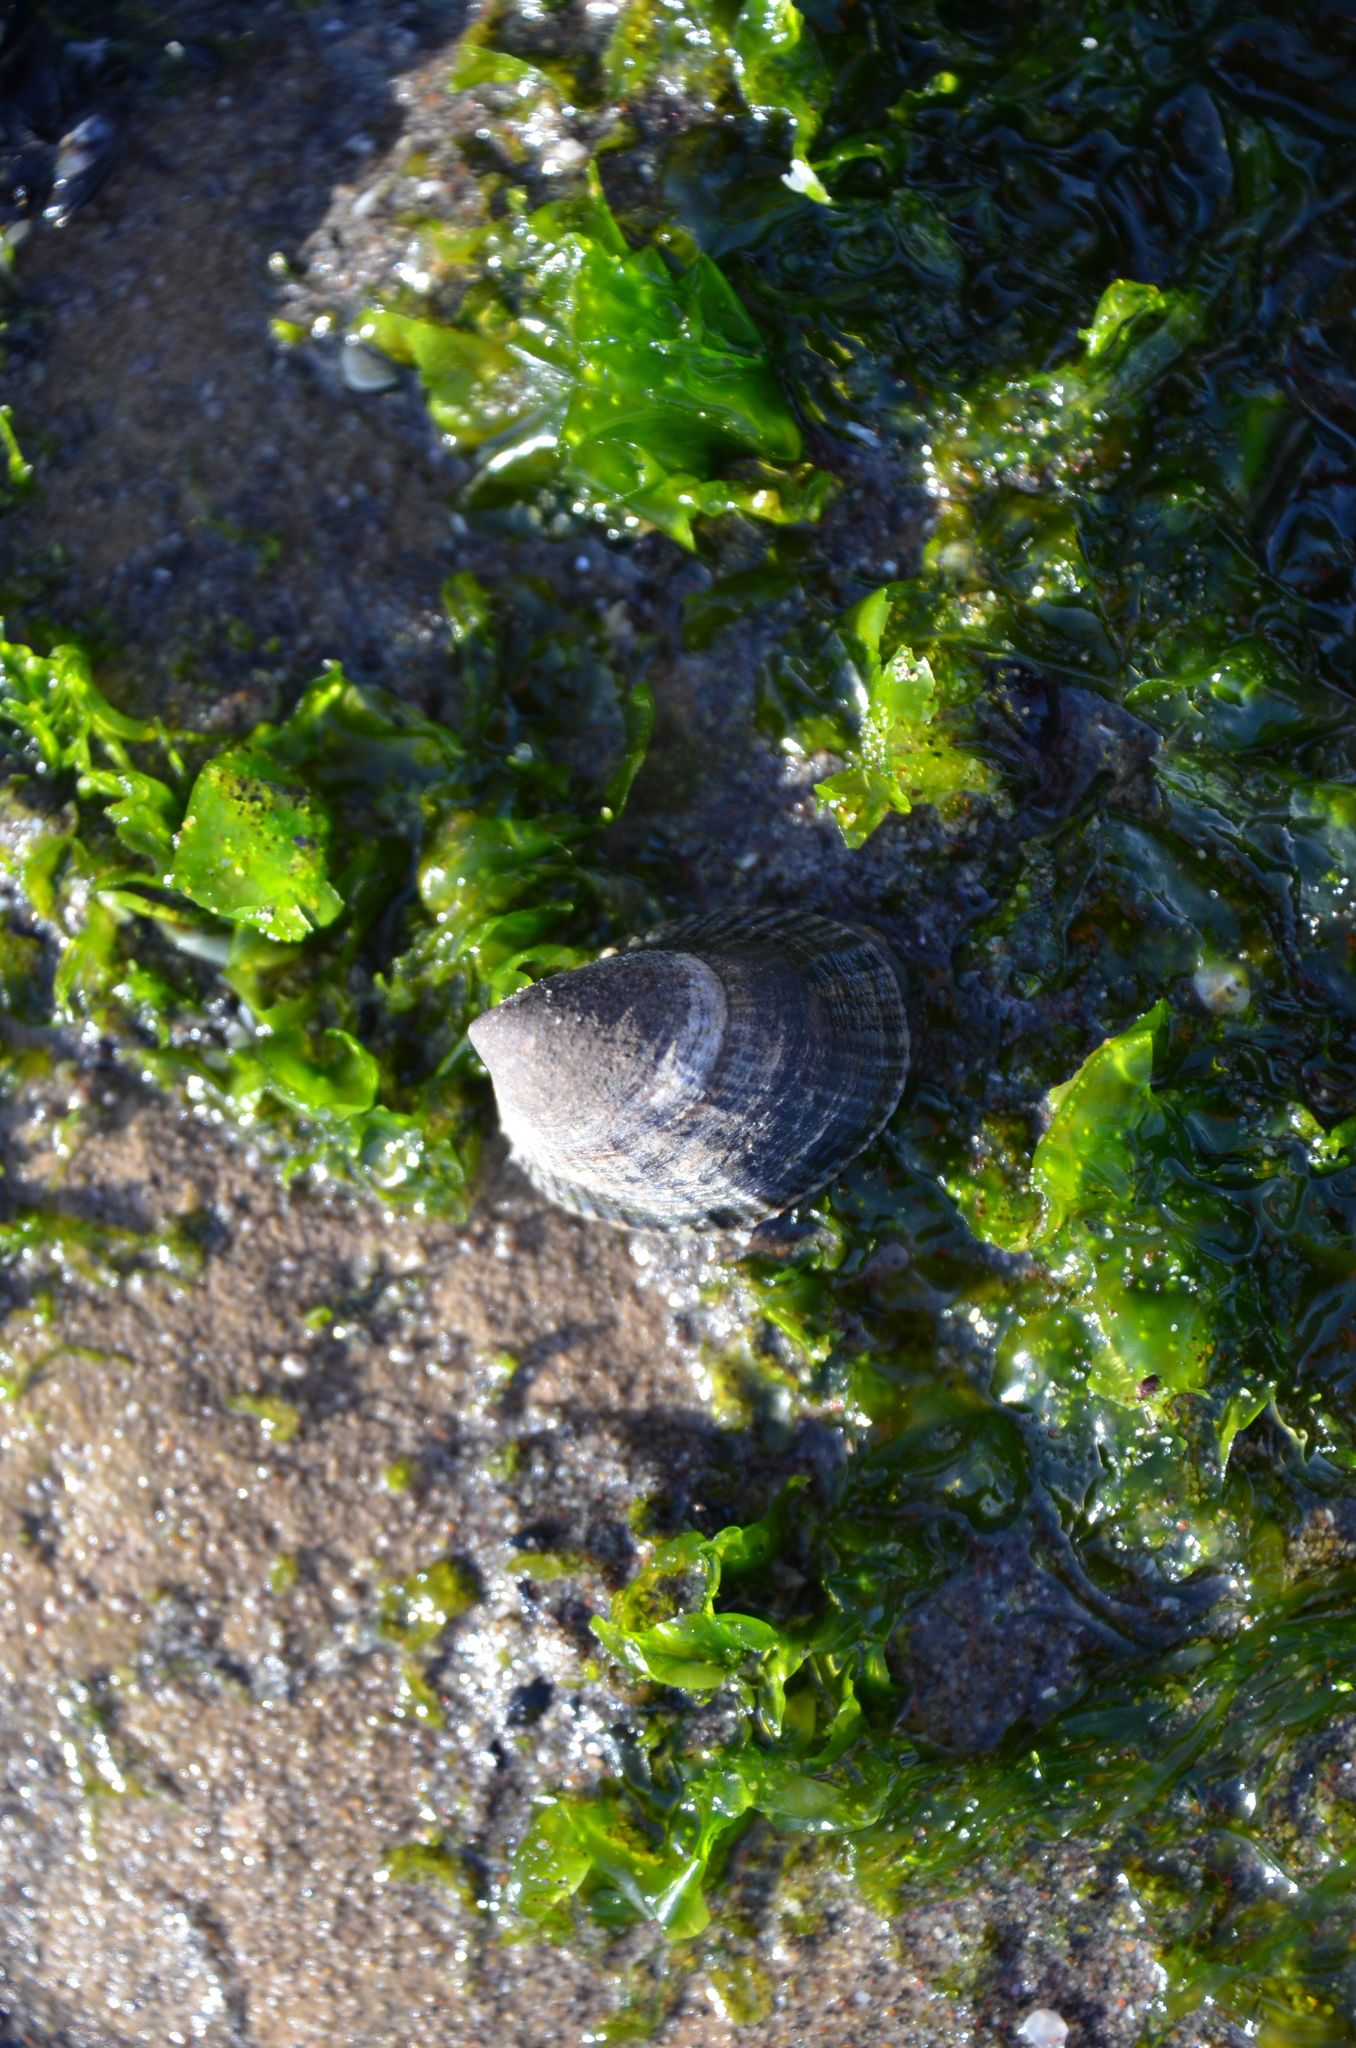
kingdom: Animalia
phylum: Mollusca
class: Gastropoda
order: Siphonariida
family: Siphonariidae
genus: Siphonaria
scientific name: Siphonaria lessonii
